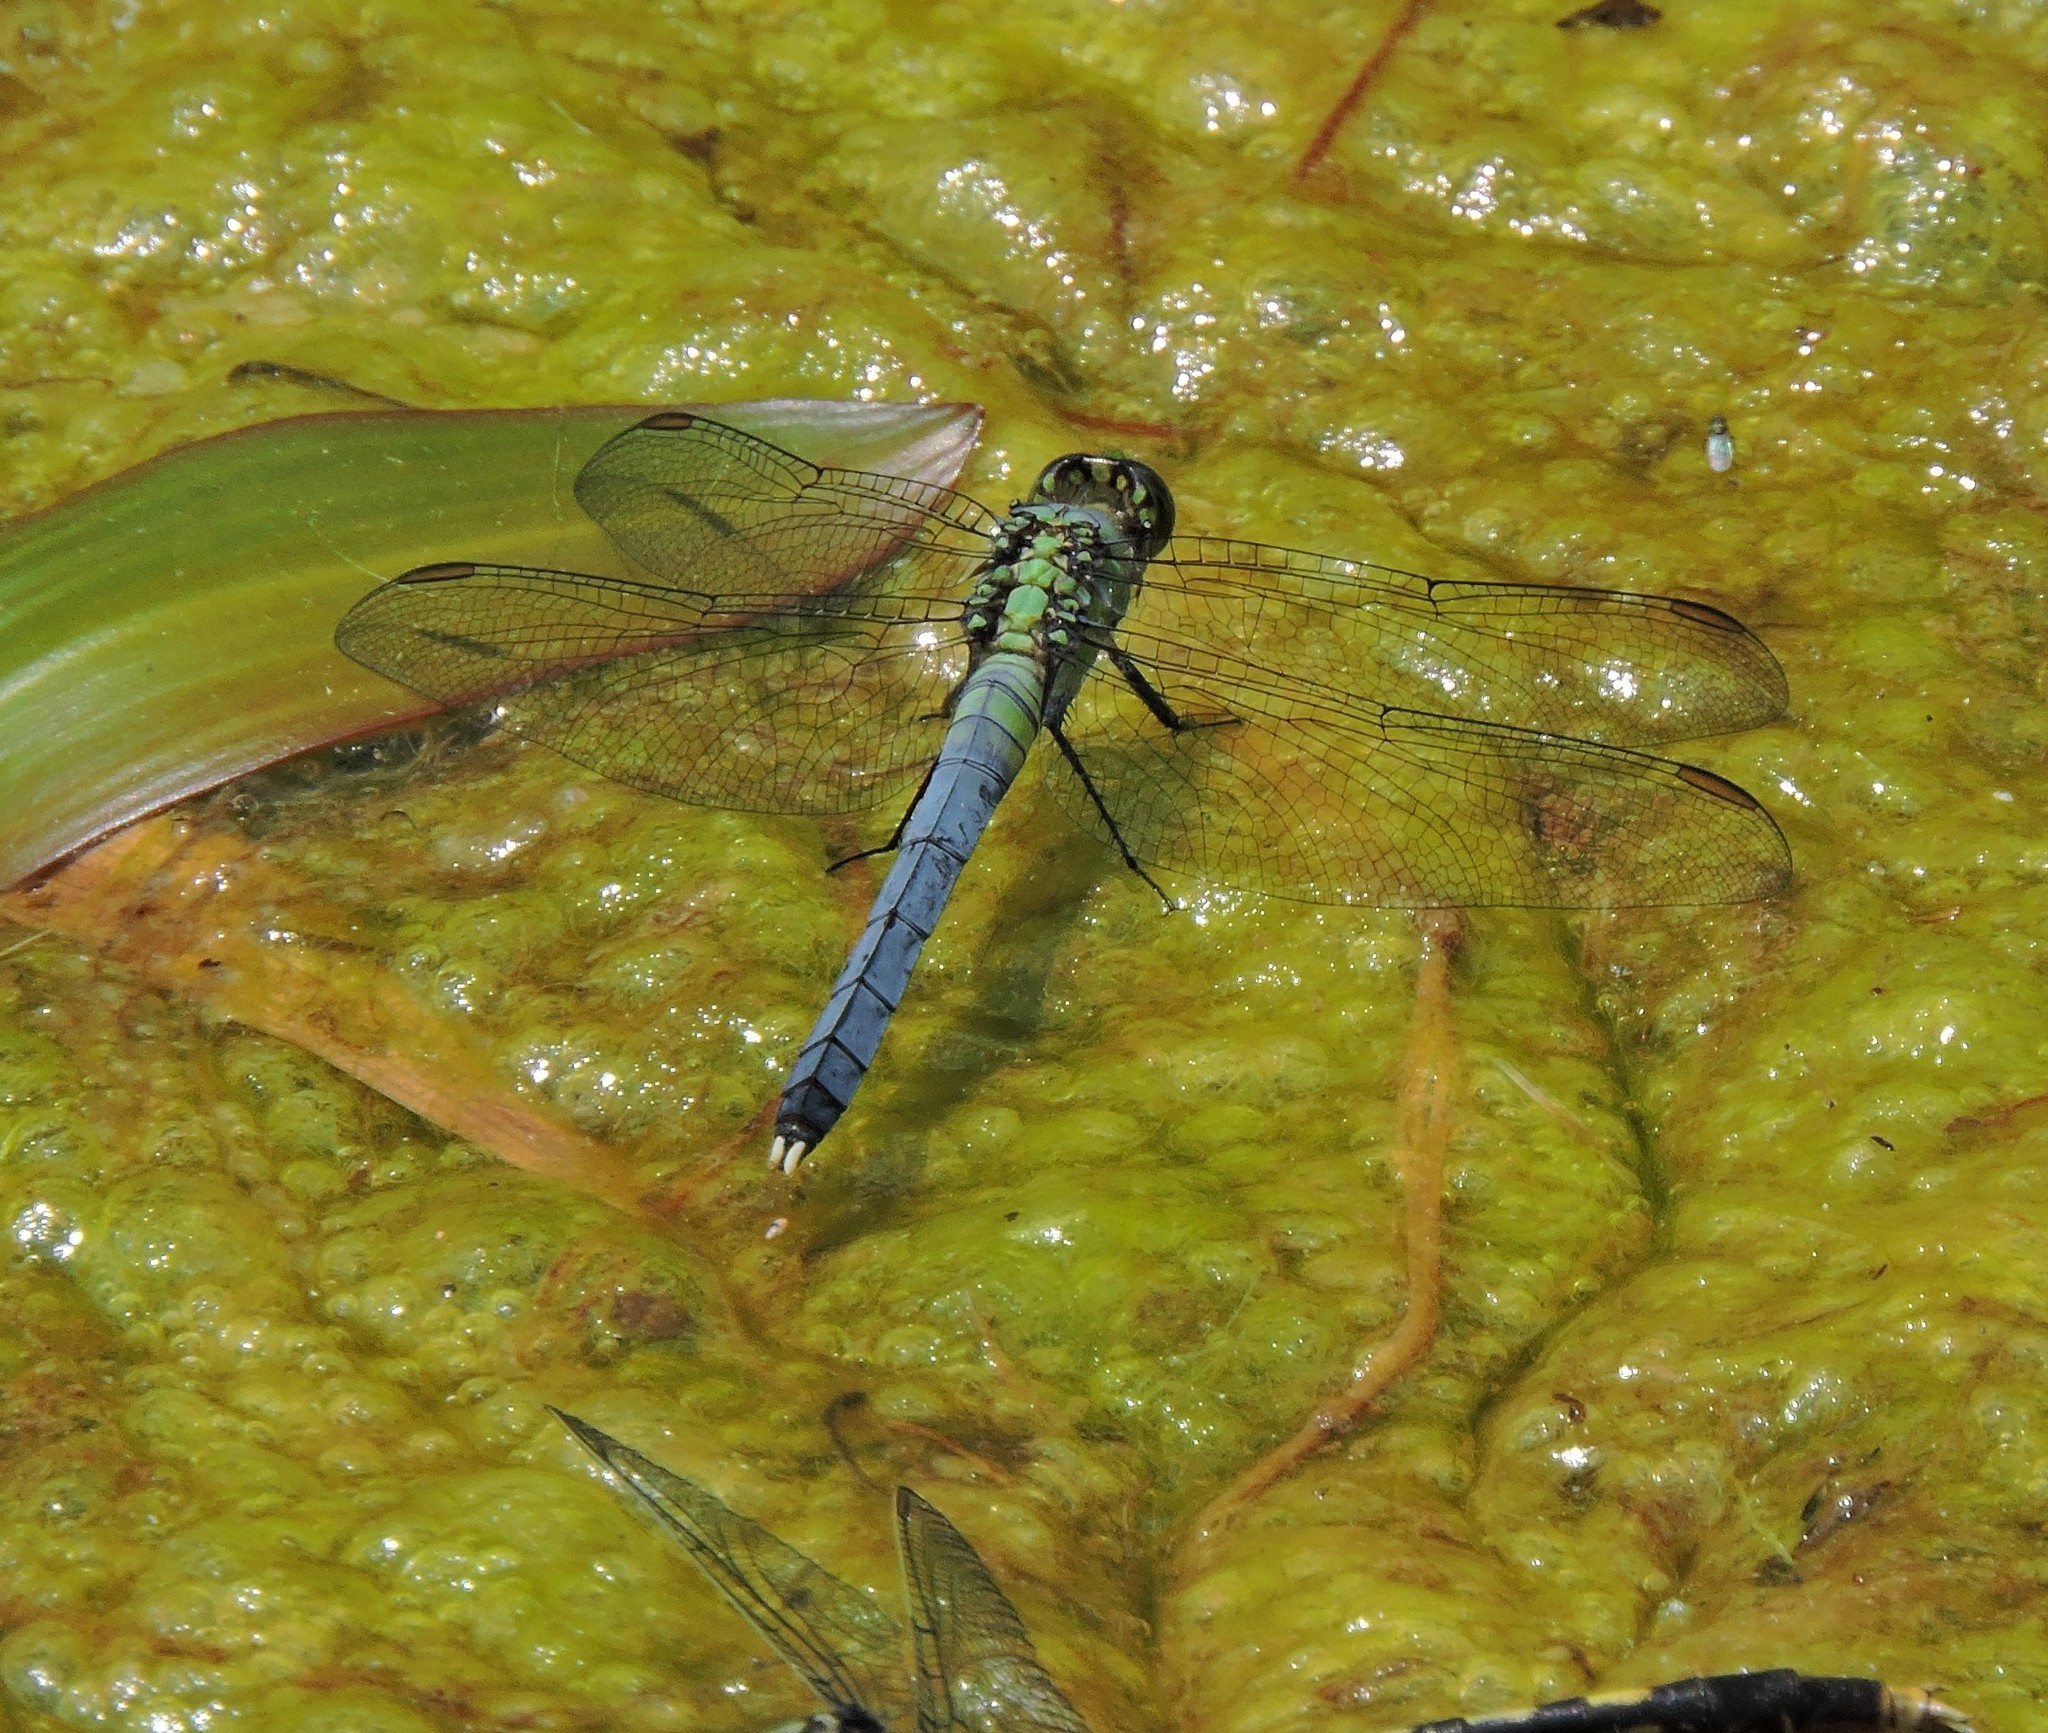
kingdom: Animalia
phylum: Arthropoda
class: Insecta
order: Odonata
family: Libellulidae
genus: Erythemis
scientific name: Erythemis simplicicollis
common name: Eastern pondhawk
